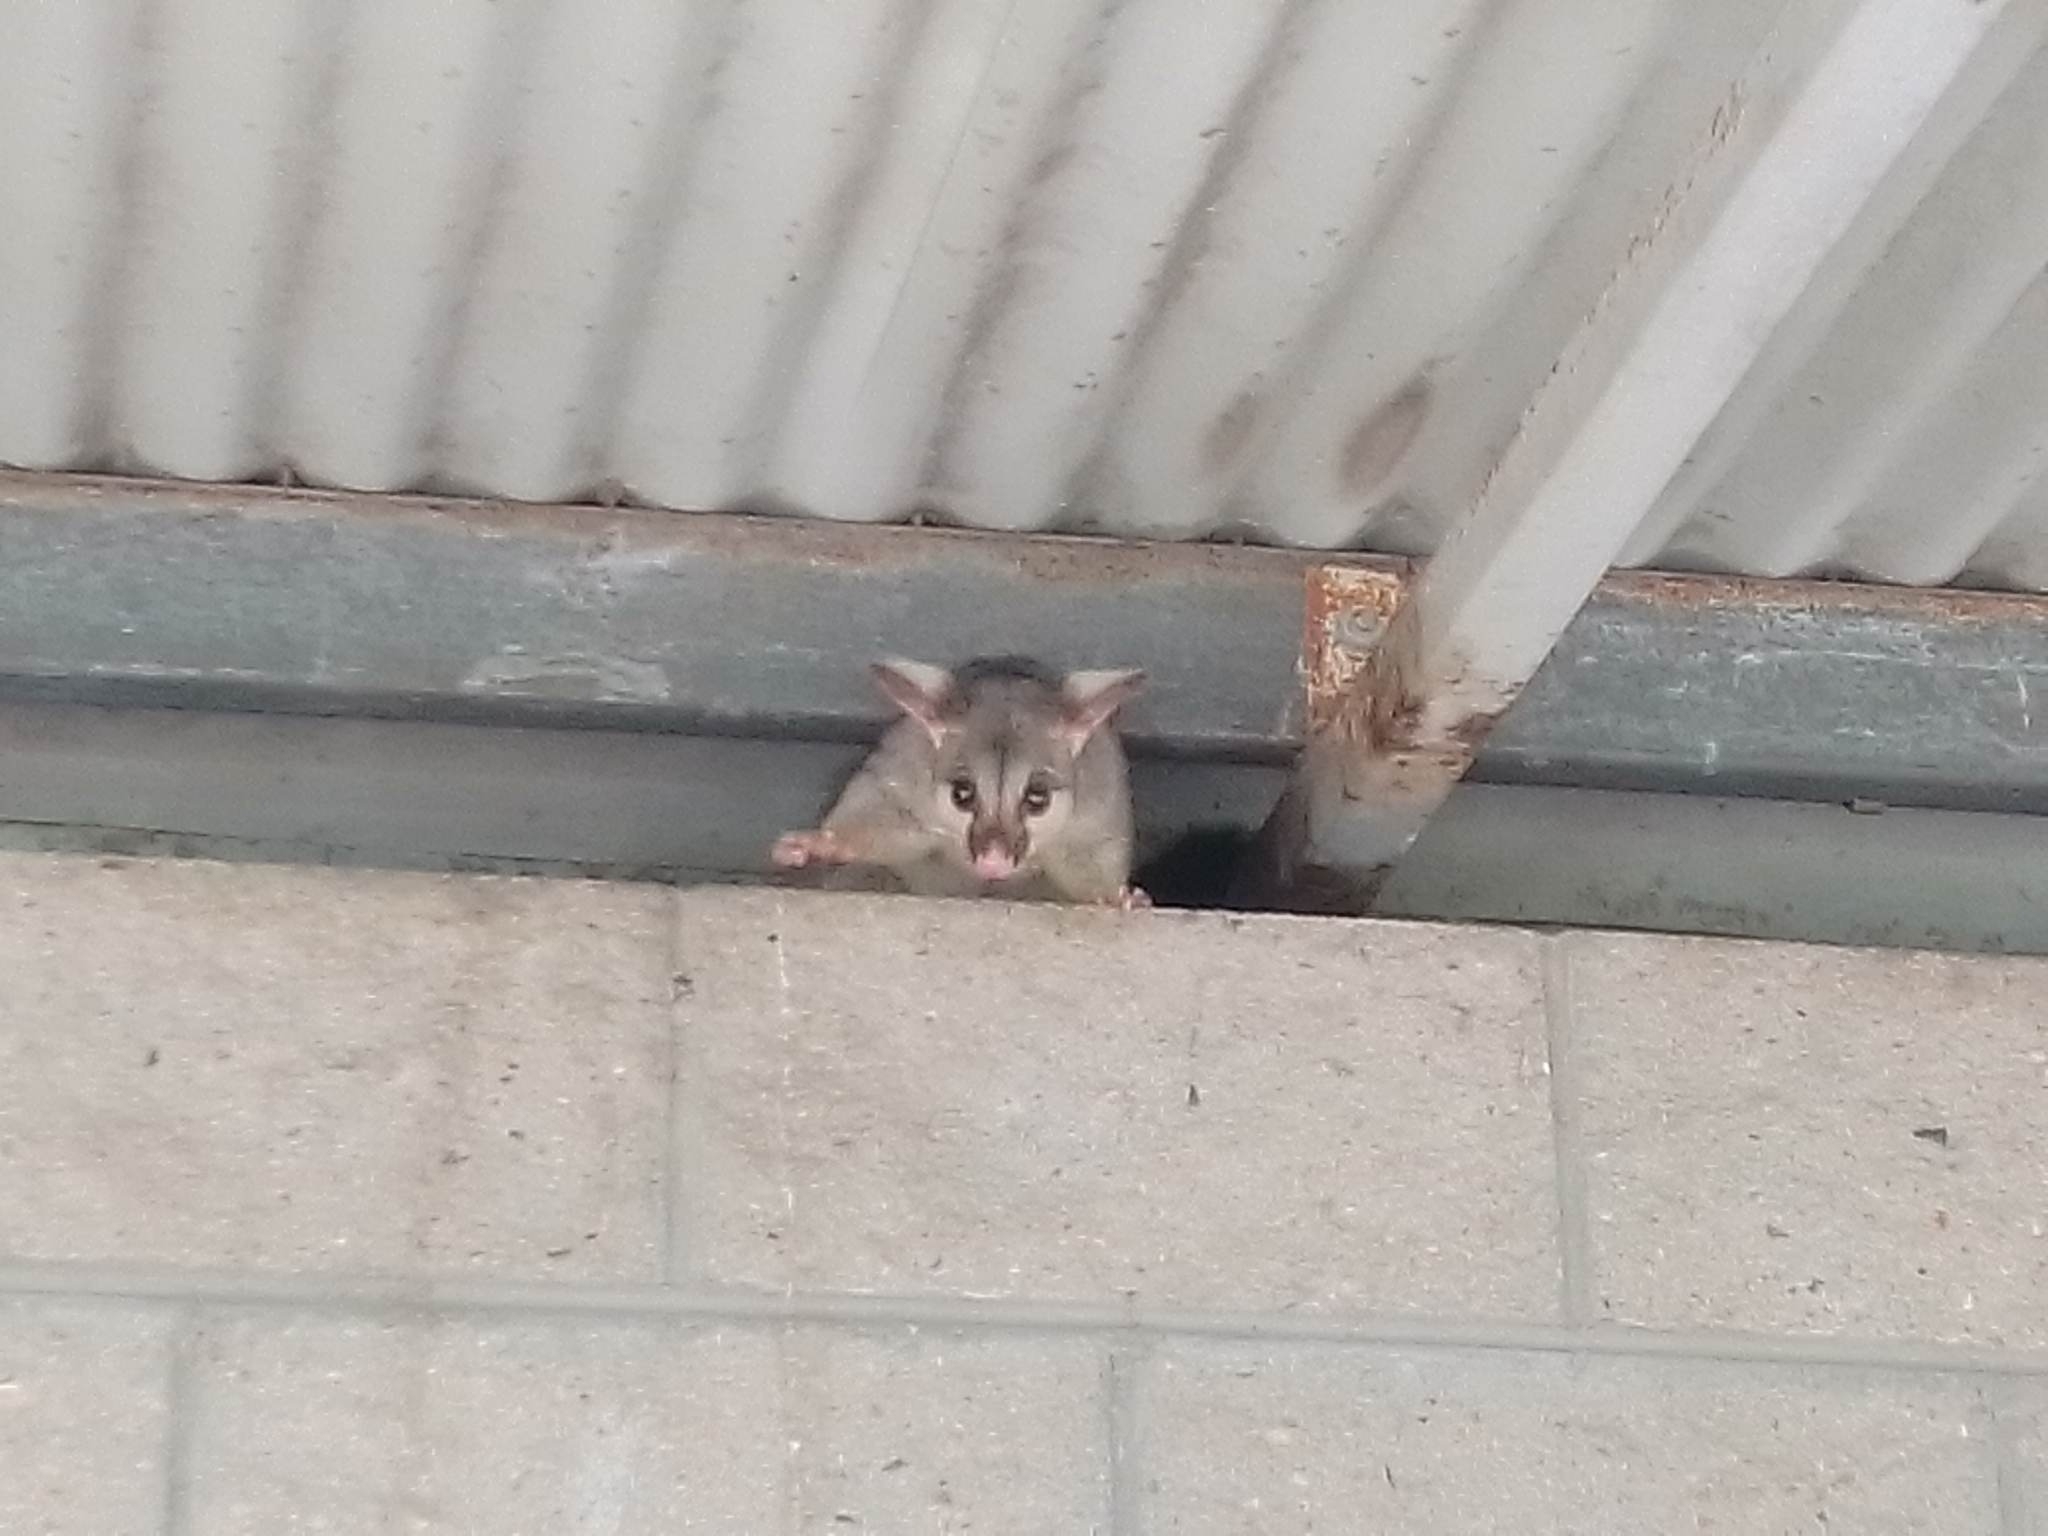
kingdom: Animalia
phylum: Chordata
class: Mammalia
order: Diprotodontia
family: Phalangeridae
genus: Trichosurus
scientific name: Trichosurus vulpecula
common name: Common brushtail
